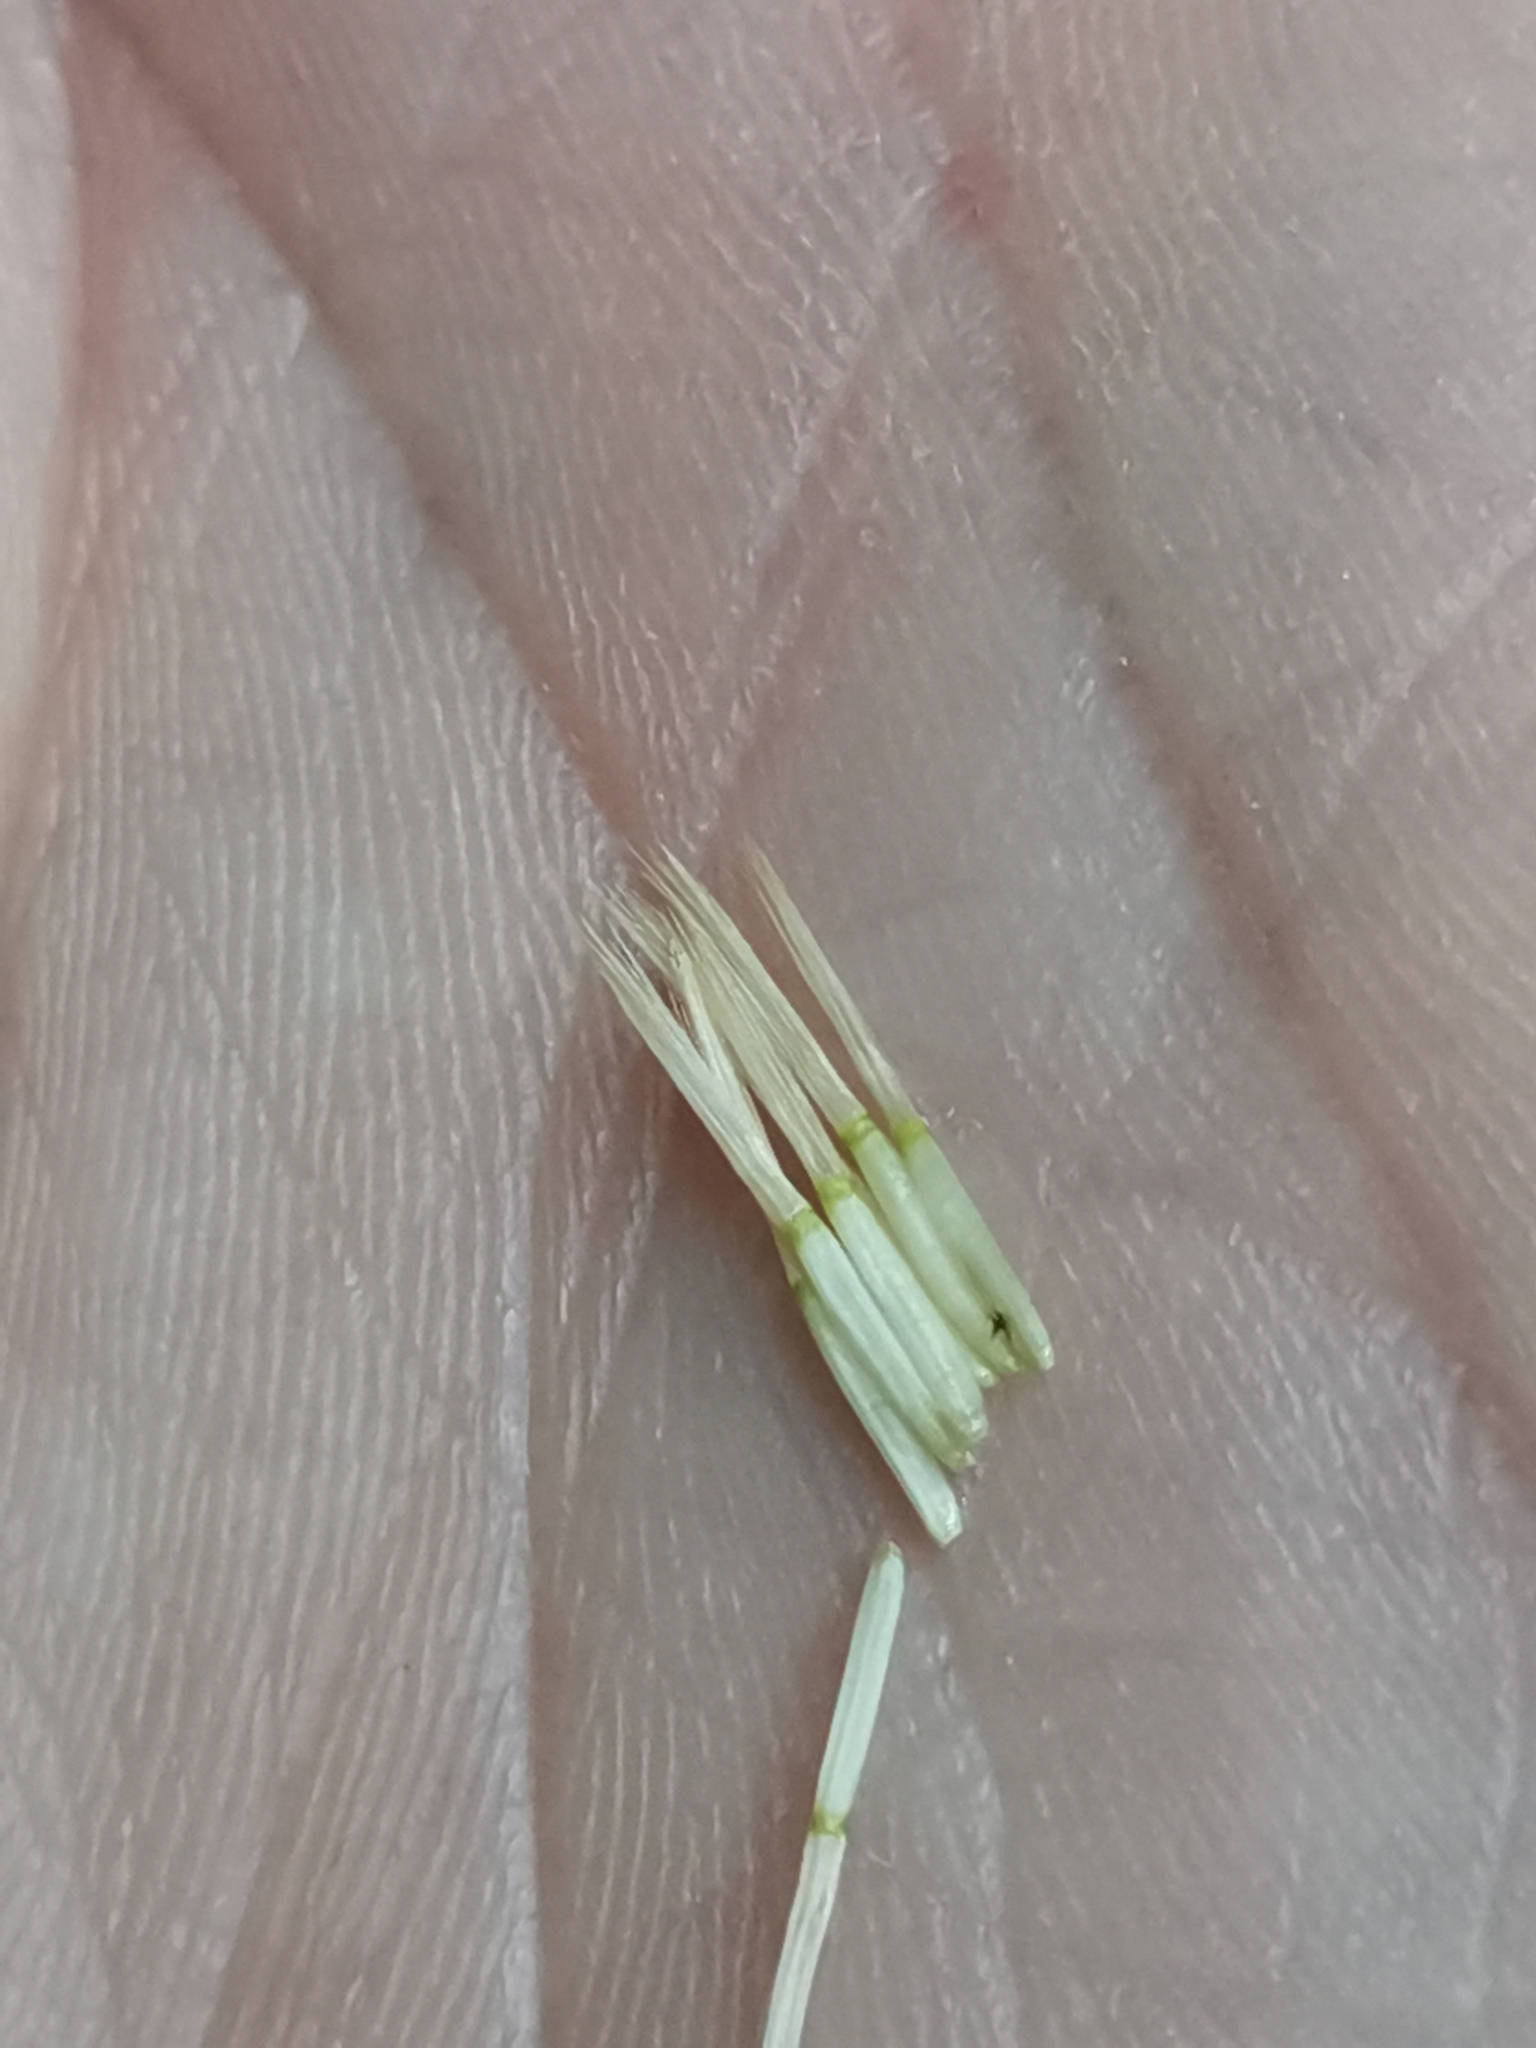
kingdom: Plantae
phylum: Tracheophyta
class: Magnoliopsida
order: Asterales
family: Asteraceae
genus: Crepis
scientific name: Crepis paludosa
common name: Marsh hawk's-beard
